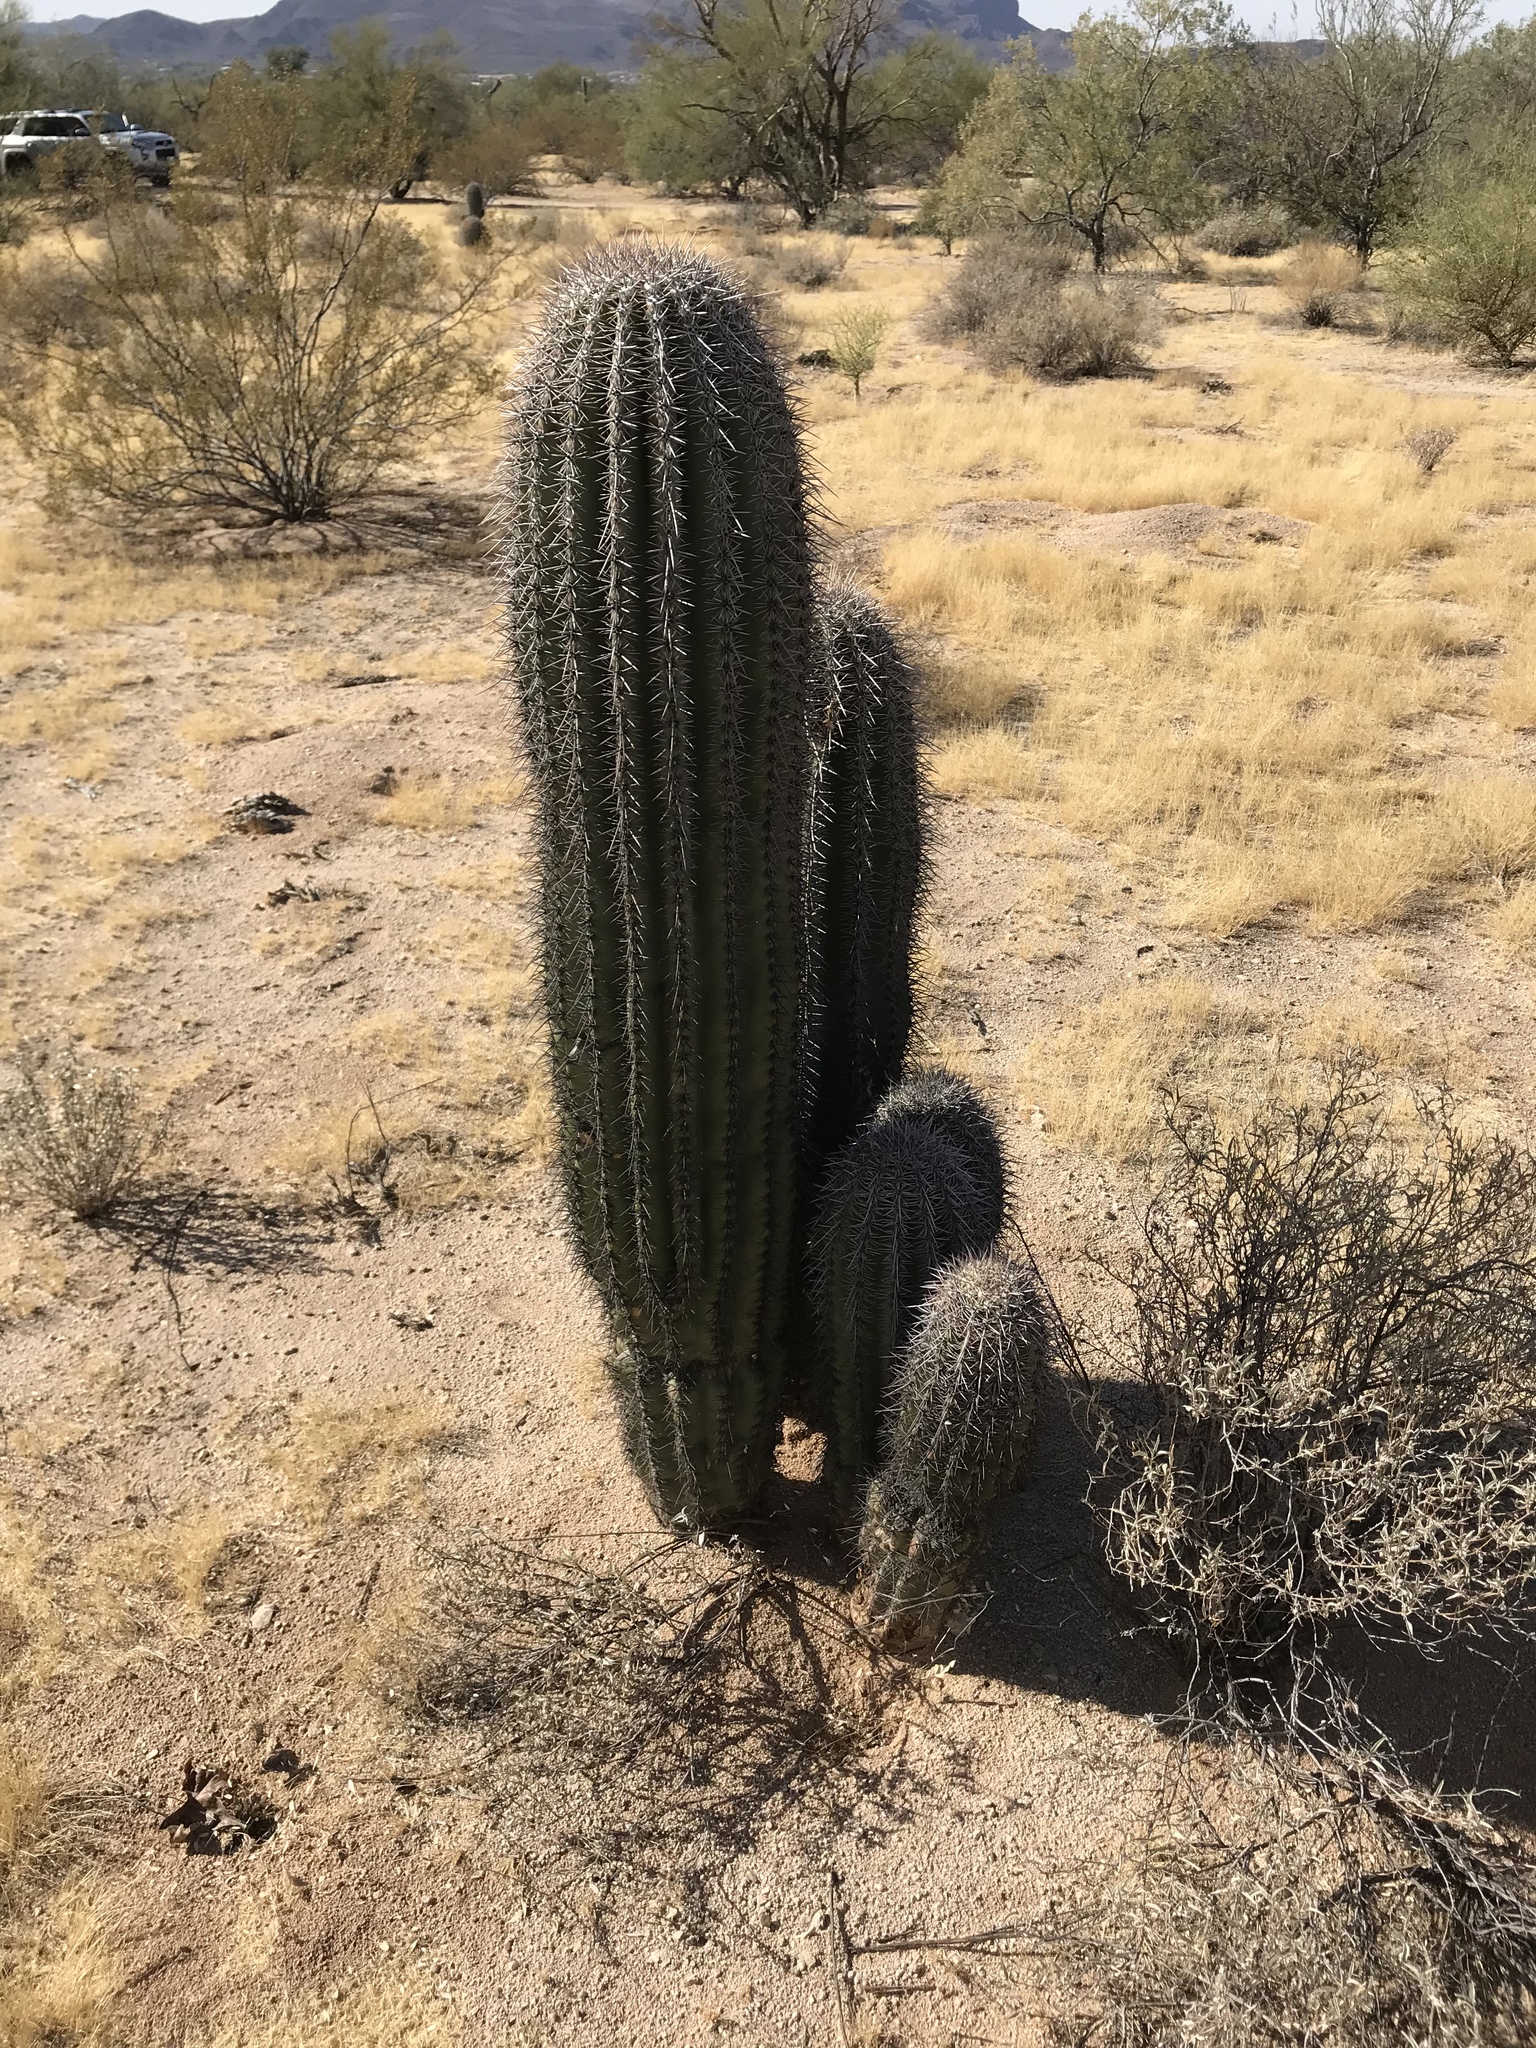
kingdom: Plantae
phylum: Tracheophyta
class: Magnoliopsida
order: Caryophyllales
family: Cactaceae
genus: Carnegiea
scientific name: Carnegiea gigantea
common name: Saguaro
